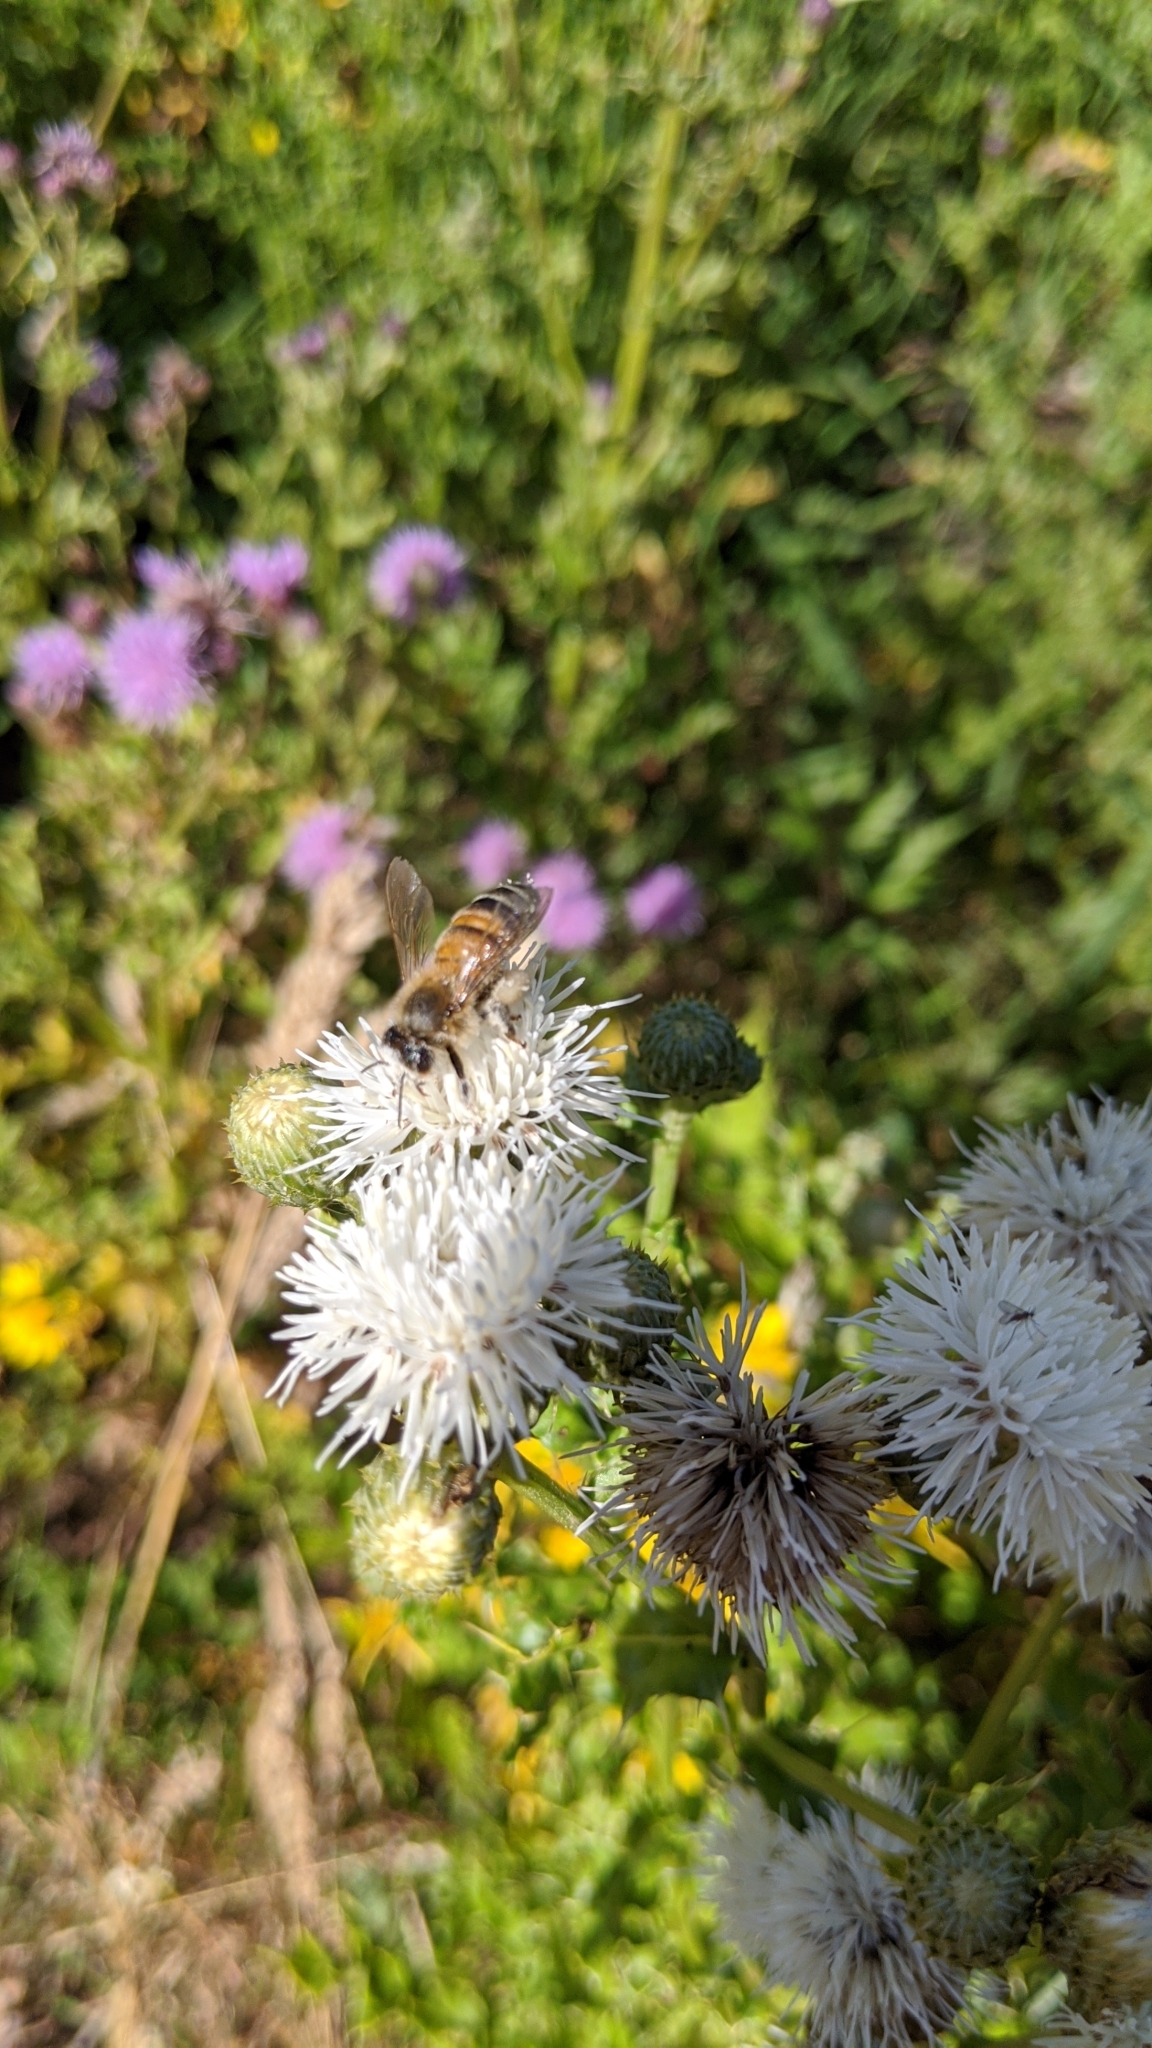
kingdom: Plantae
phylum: Tracheophyta
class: Magnoliopsida
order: Asterales
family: Asteraceae
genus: Cirsium
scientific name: Cirsium arvense
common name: Creeping thistle
